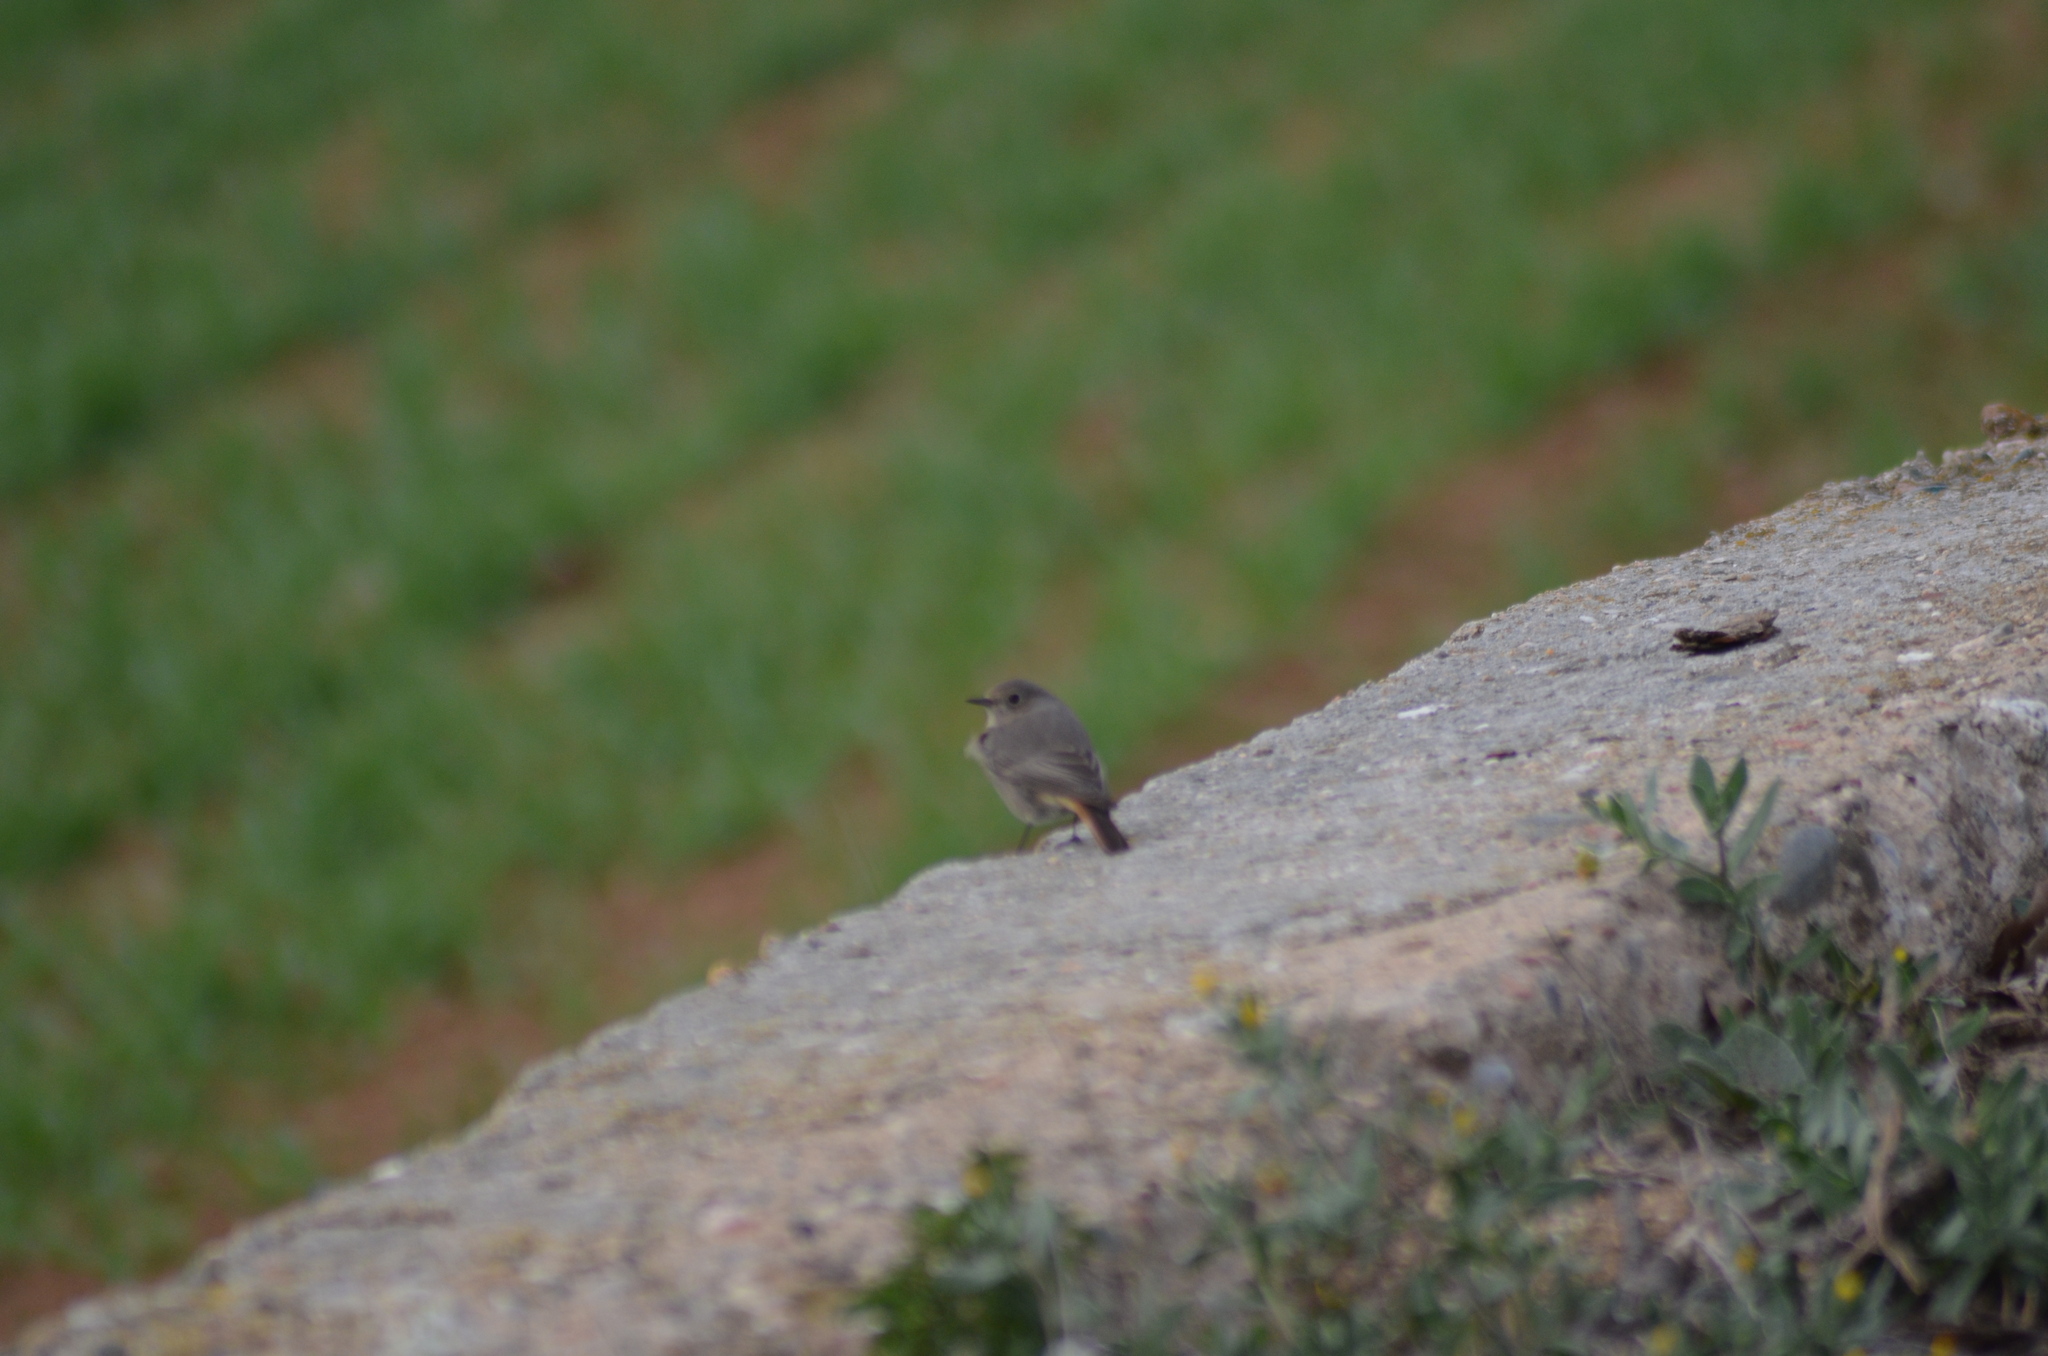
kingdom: Animalia
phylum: Chordata
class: Aves
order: Passeriformes
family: Muscicapidae
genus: Phoenicurus
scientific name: Phoenicurus ochruros
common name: Black redstart
